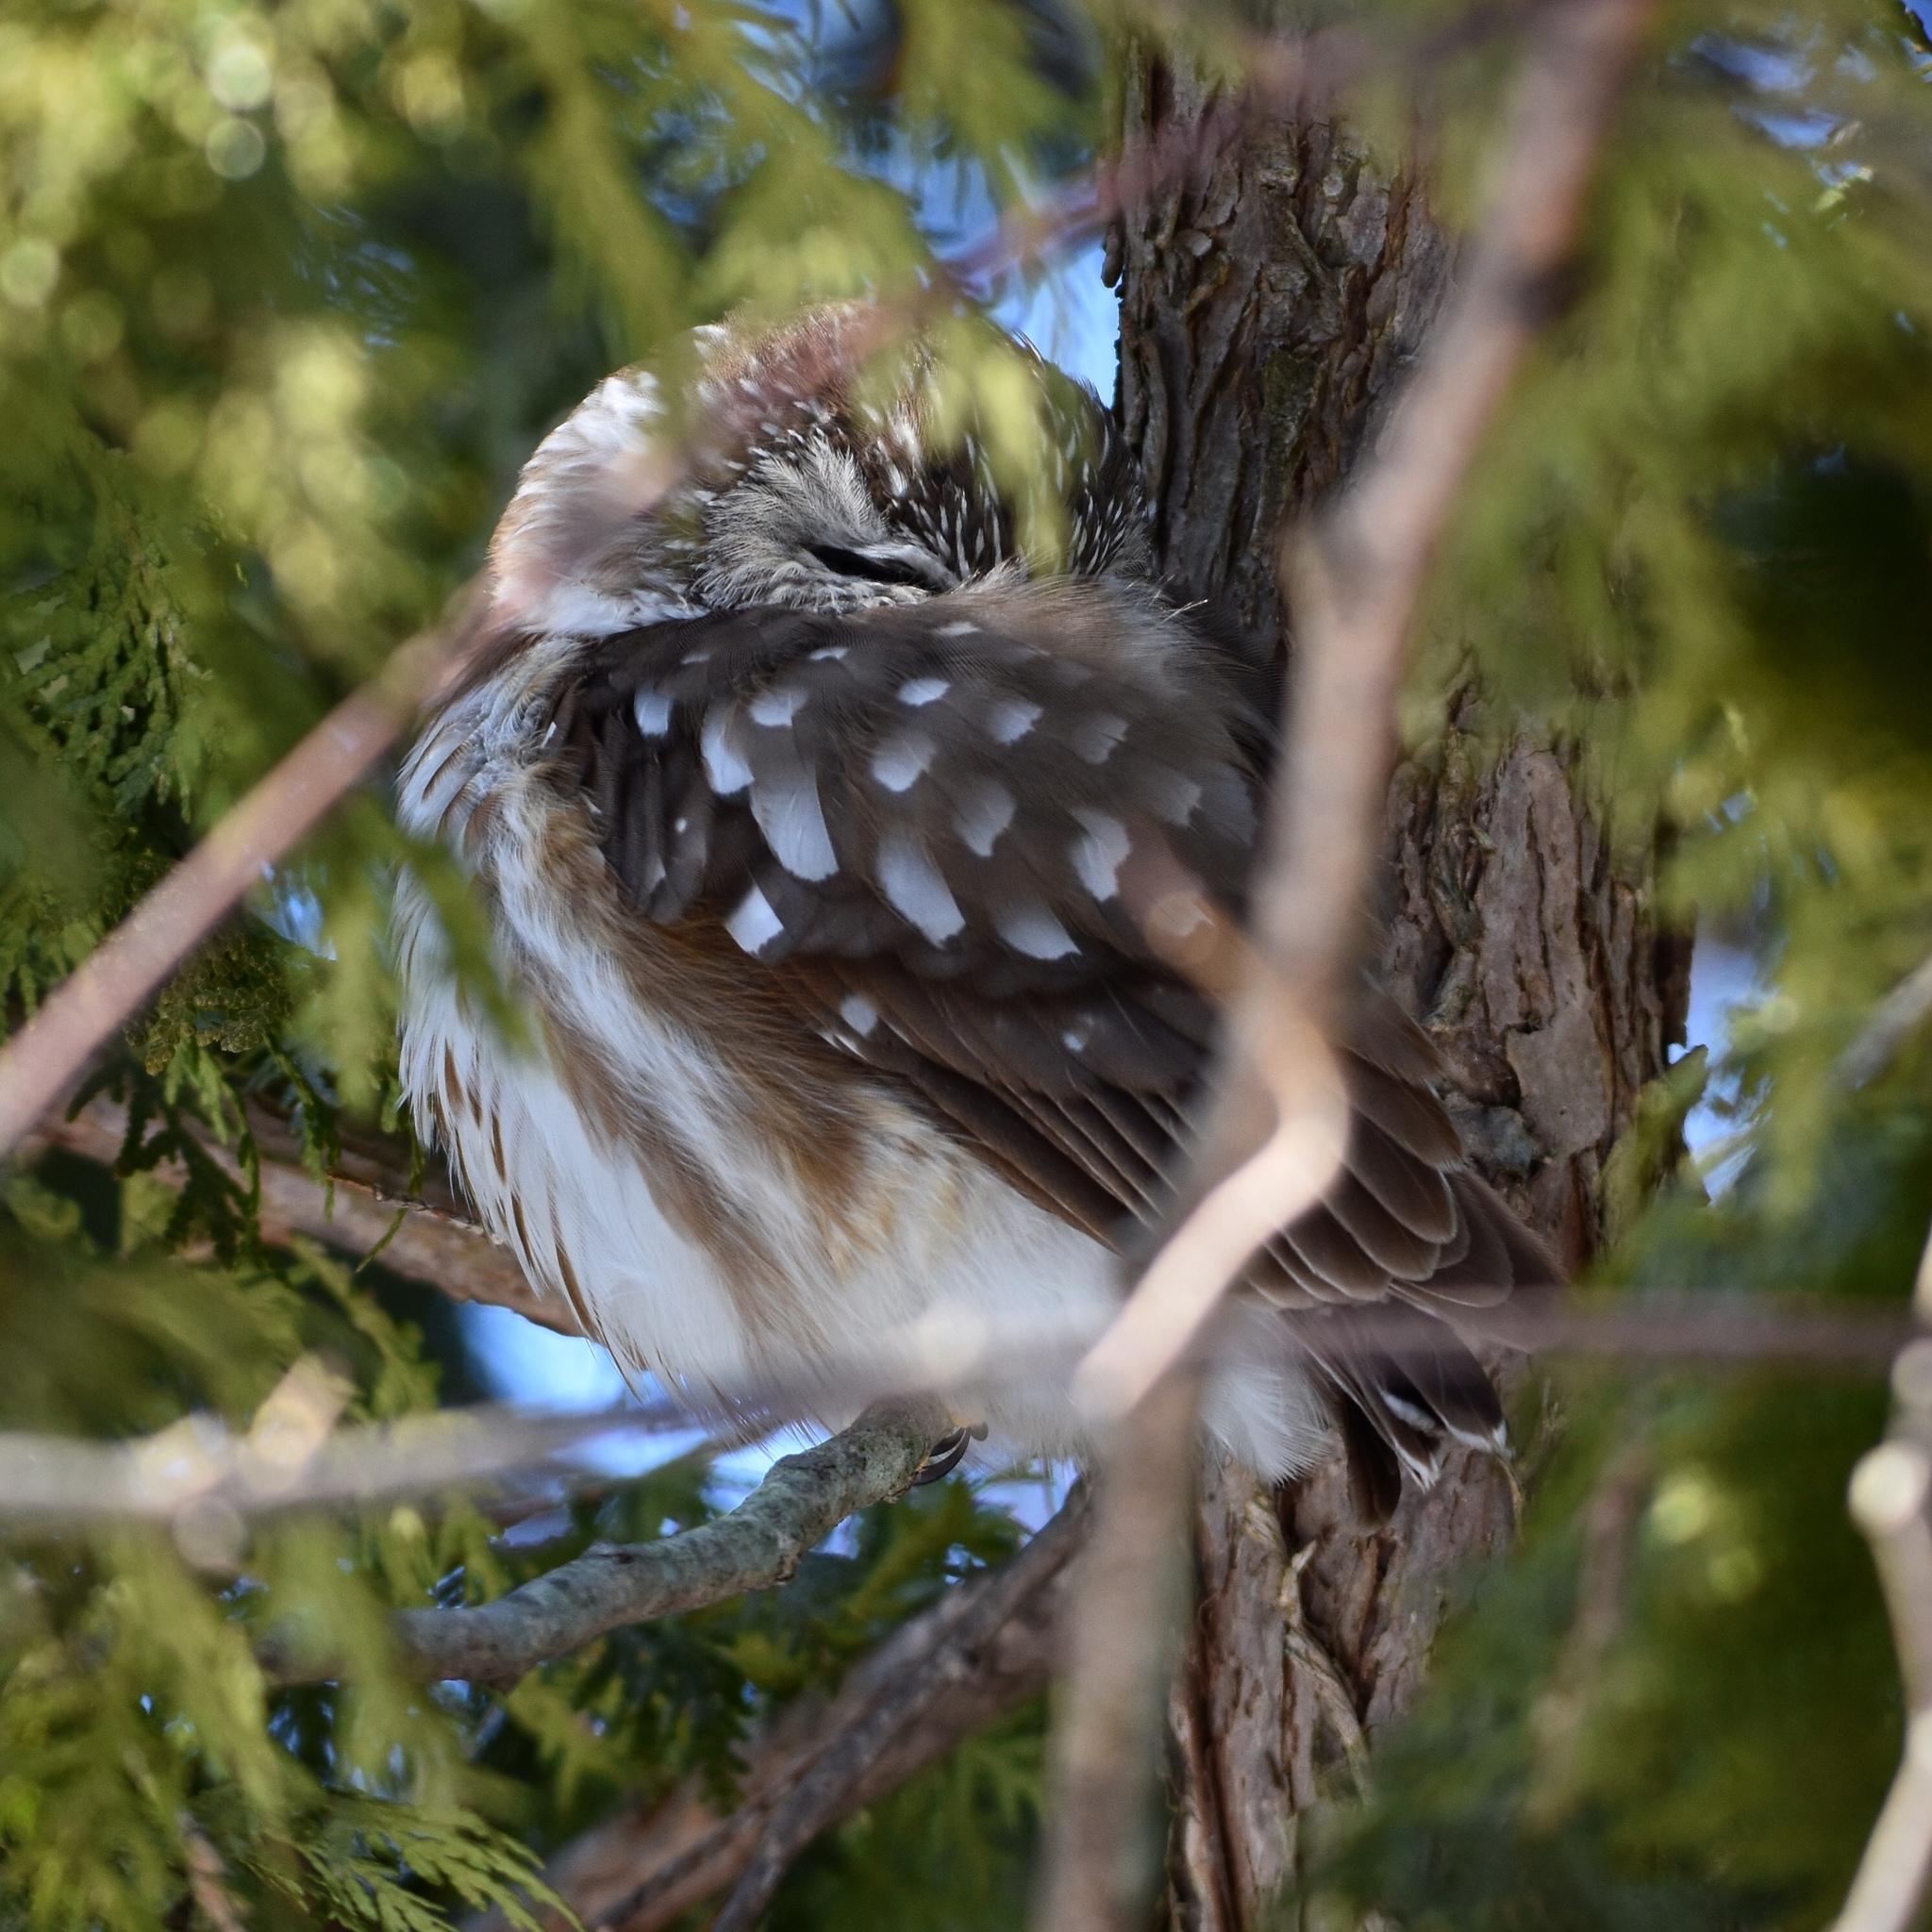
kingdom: Animalia
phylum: Chordata
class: Aves
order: Strigiformes
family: Strigidae
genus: Aegolius
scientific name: Aegolius acadicus
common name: Northern saw-whet owl
